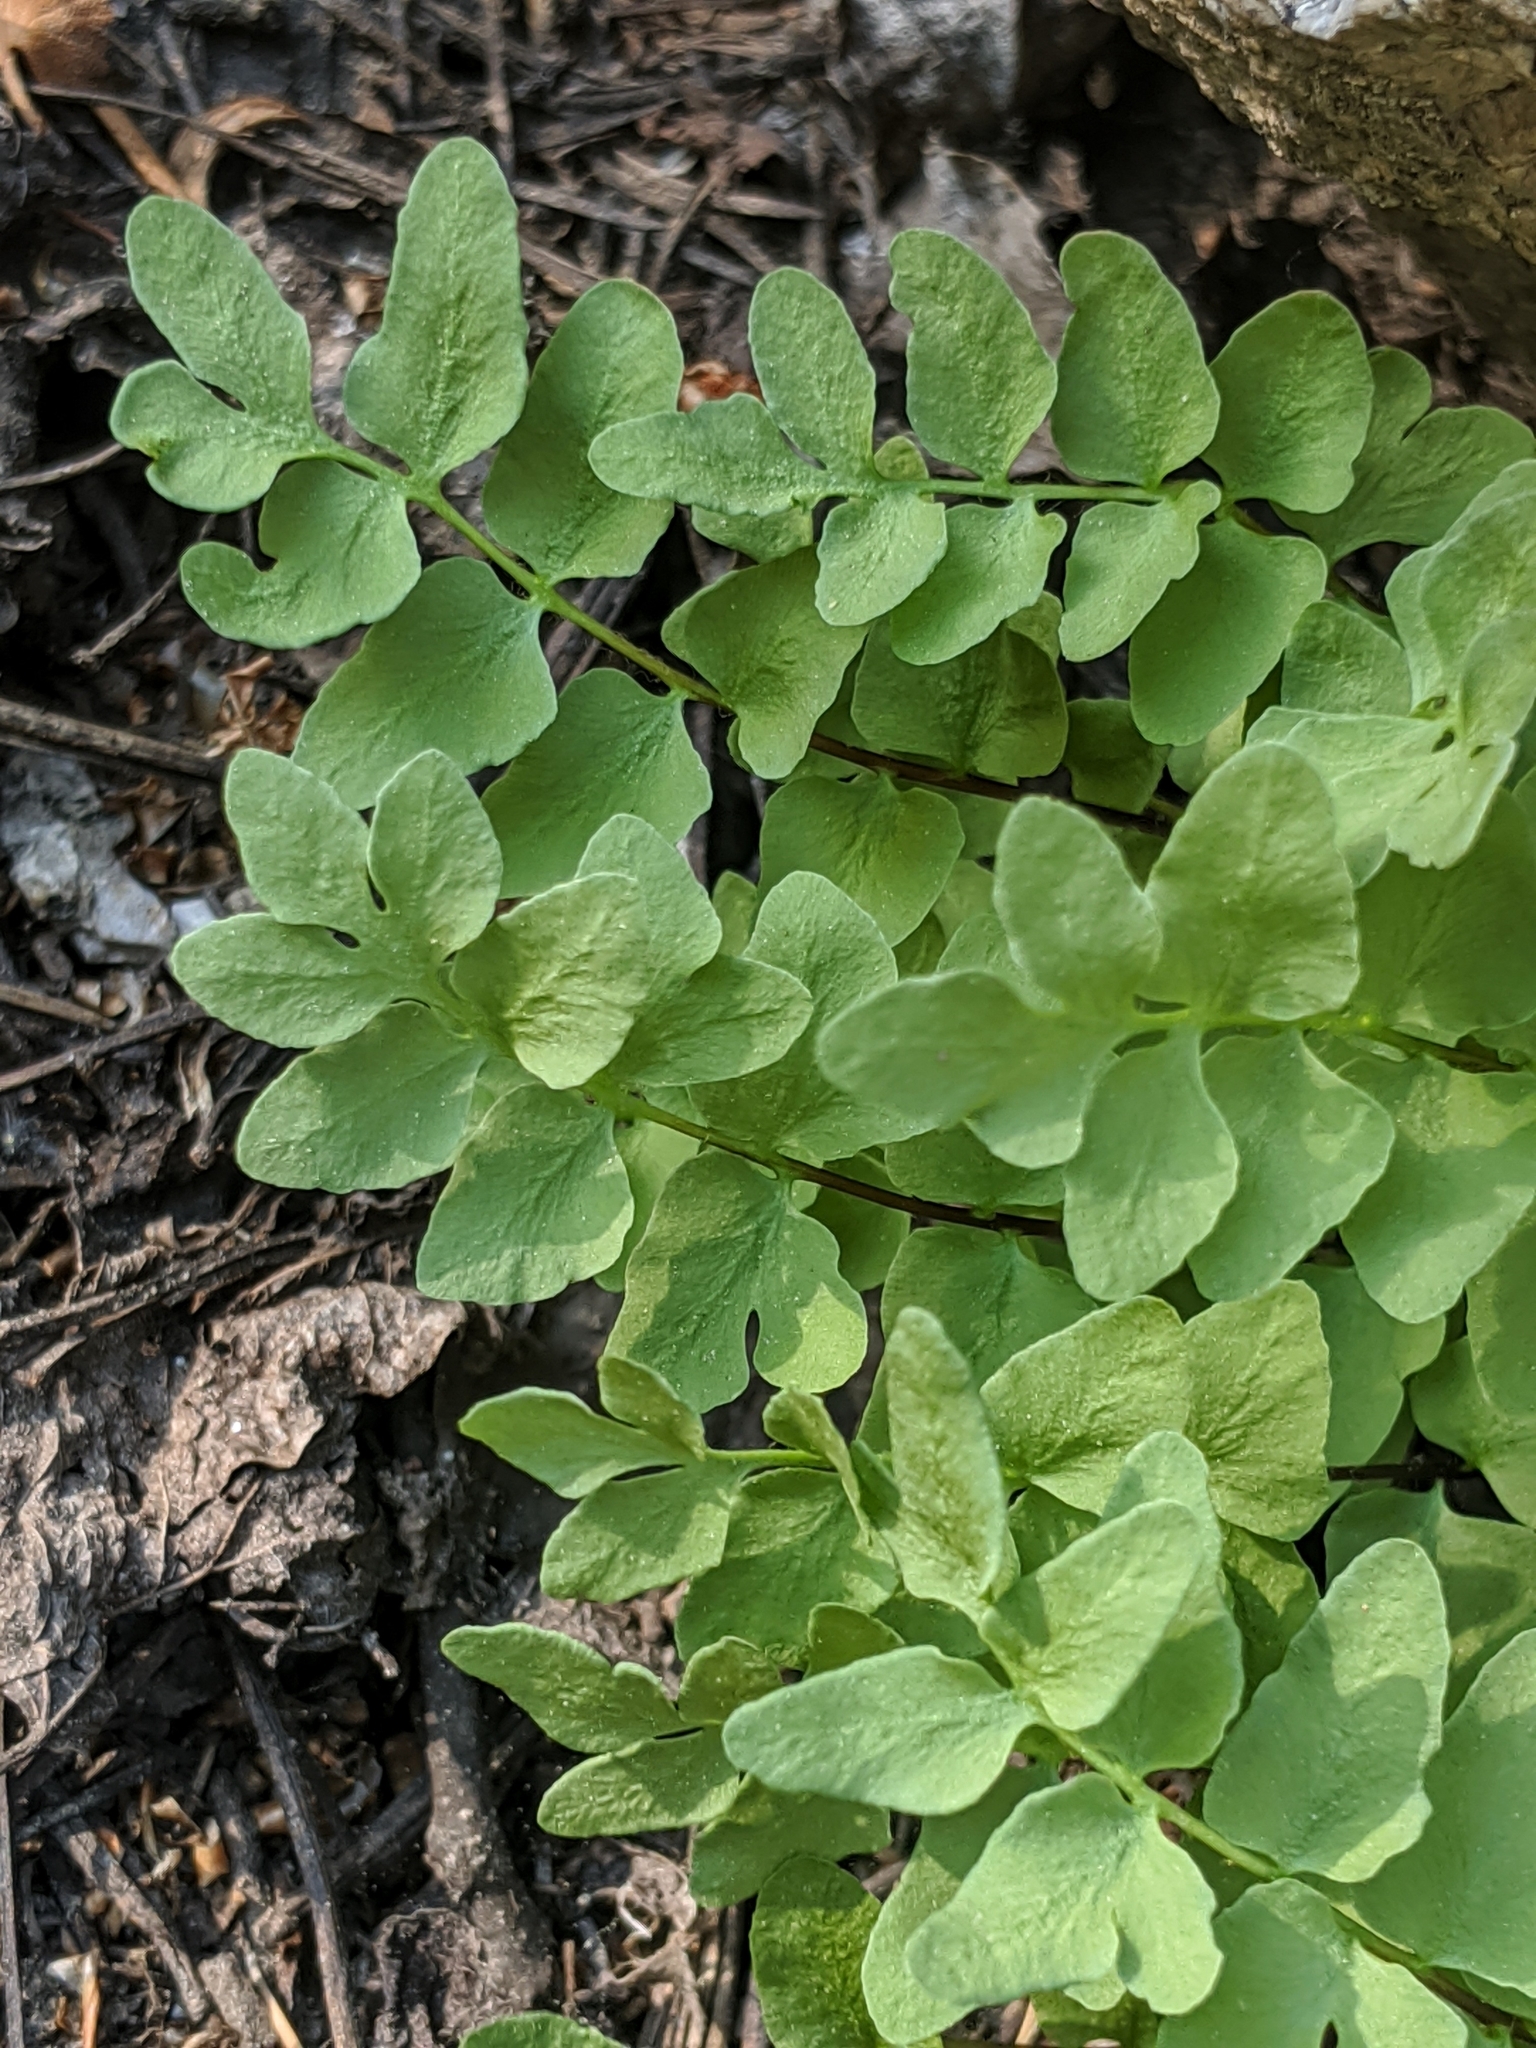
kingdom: Plantae
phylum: Tracheophyta
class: Polypodiopsida
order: Polypodiales
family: Pteridaceae
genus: Pellaea
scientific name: Pellaea breweri
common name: Brewer's cliffbrake
